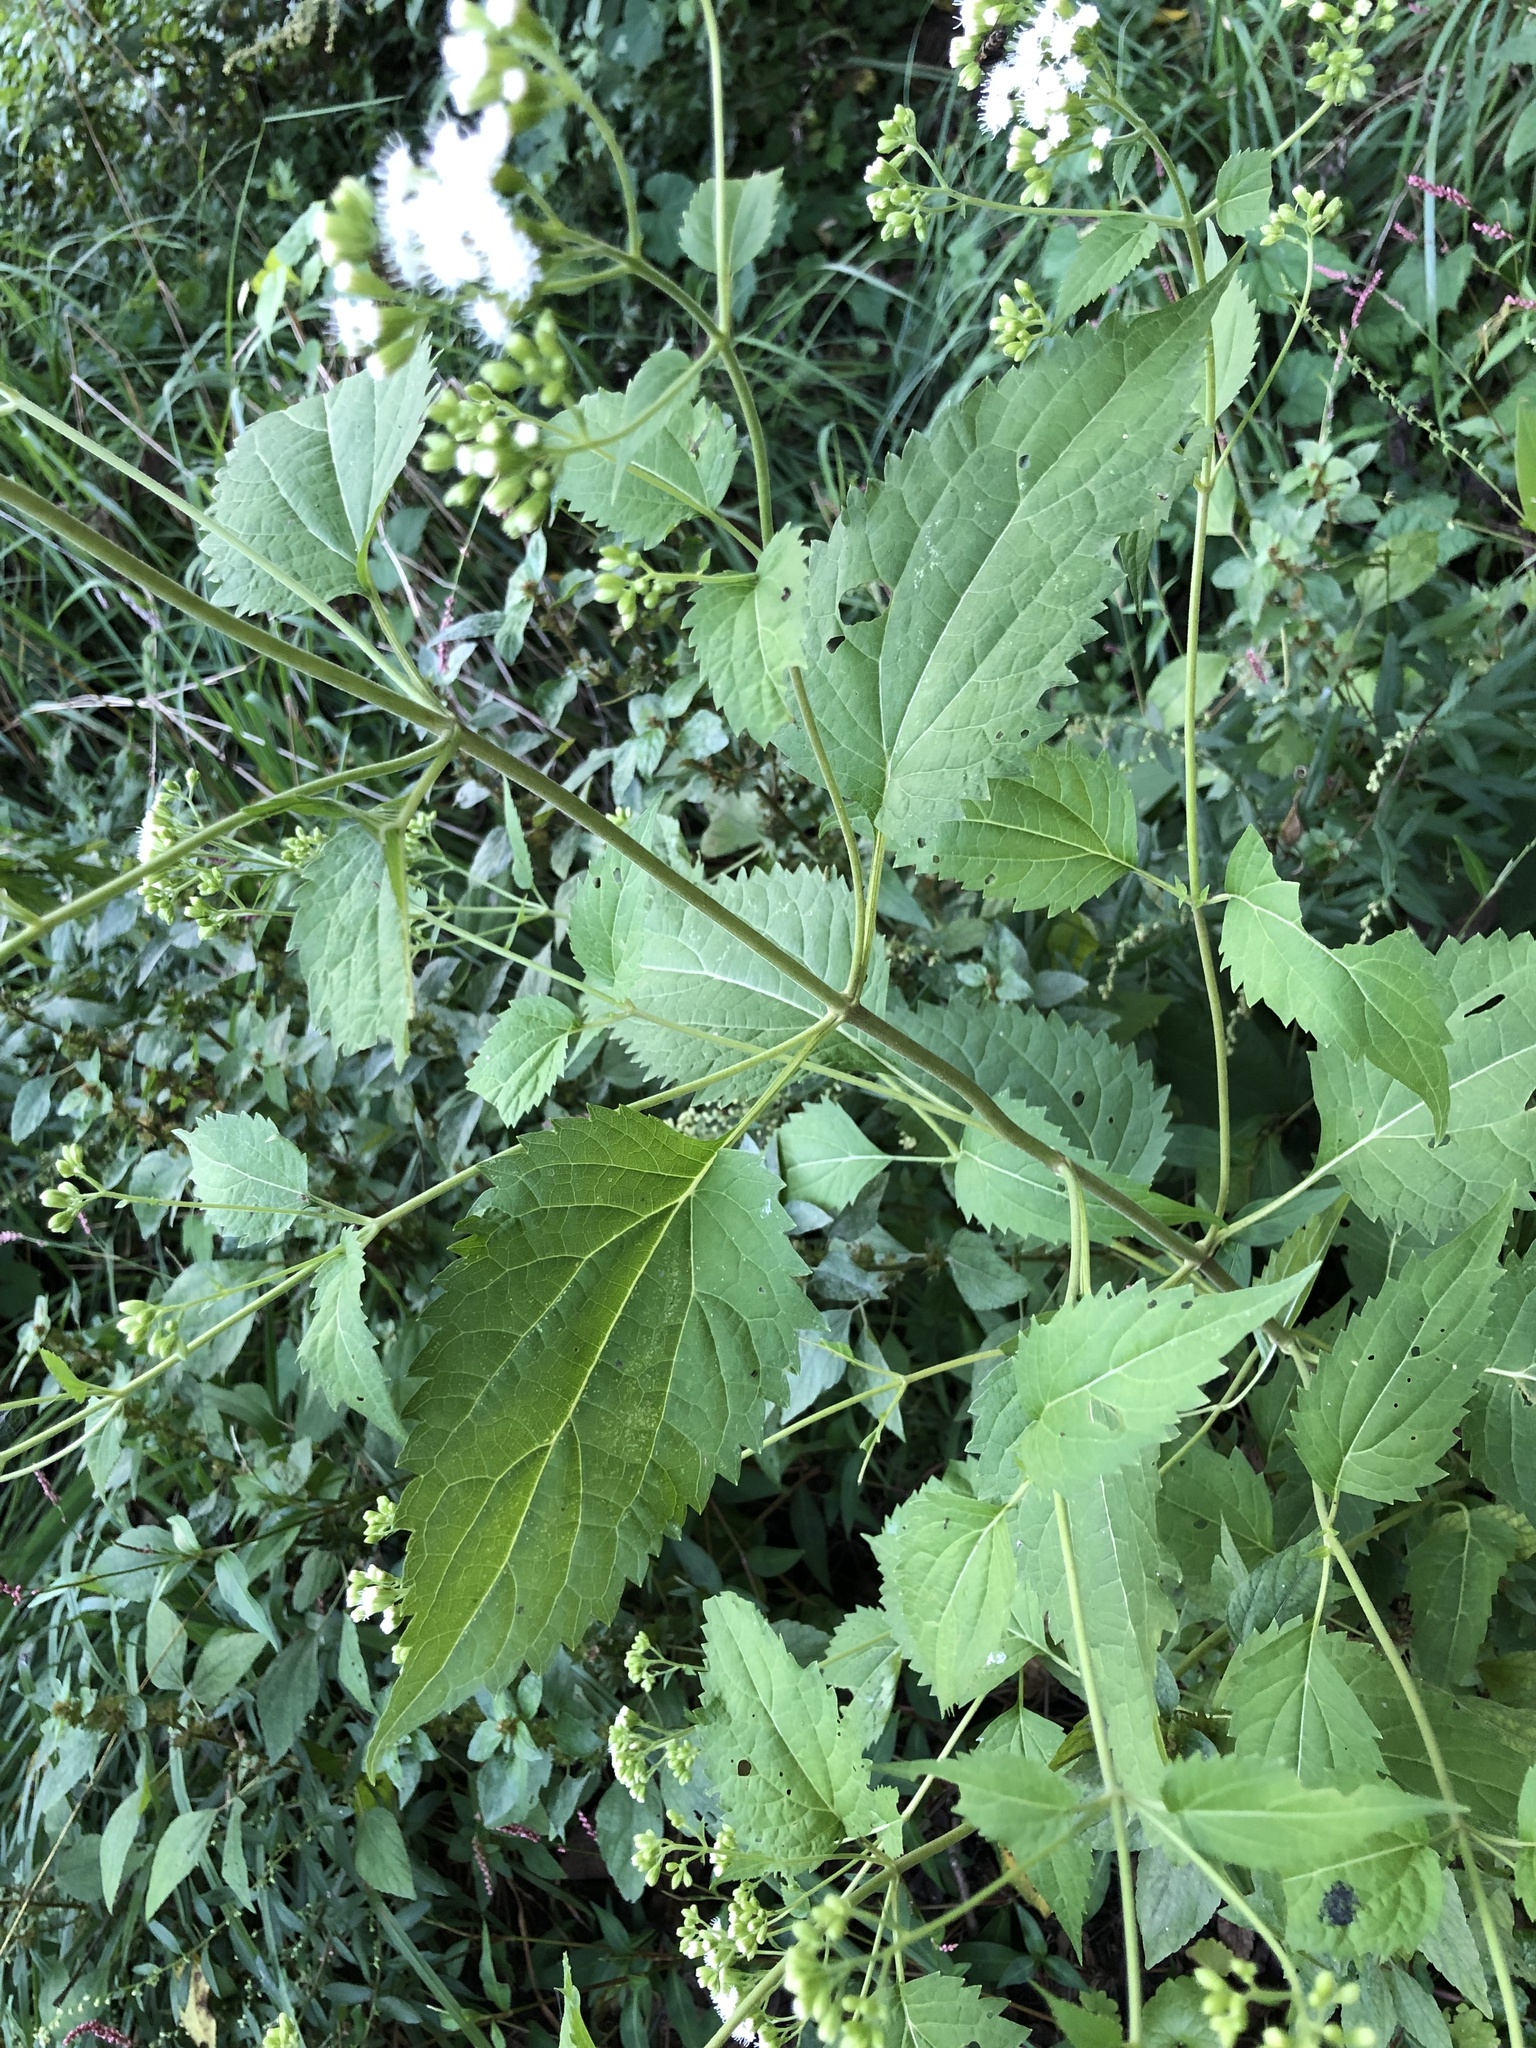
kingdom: Plantae
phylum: Tracheophyta
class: Magnoliopsida
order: Asterales
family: Asteraceae
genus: Ageratina
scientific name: Ageratina altissima
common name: White snakeroot
